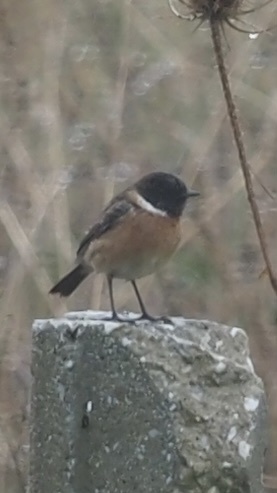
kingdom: Animalia
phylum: Chordata
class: Aves
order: Passeriformes
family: Muscicapidae
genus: Saxicola
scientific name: Saxicola rubicola
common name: European stonechat
